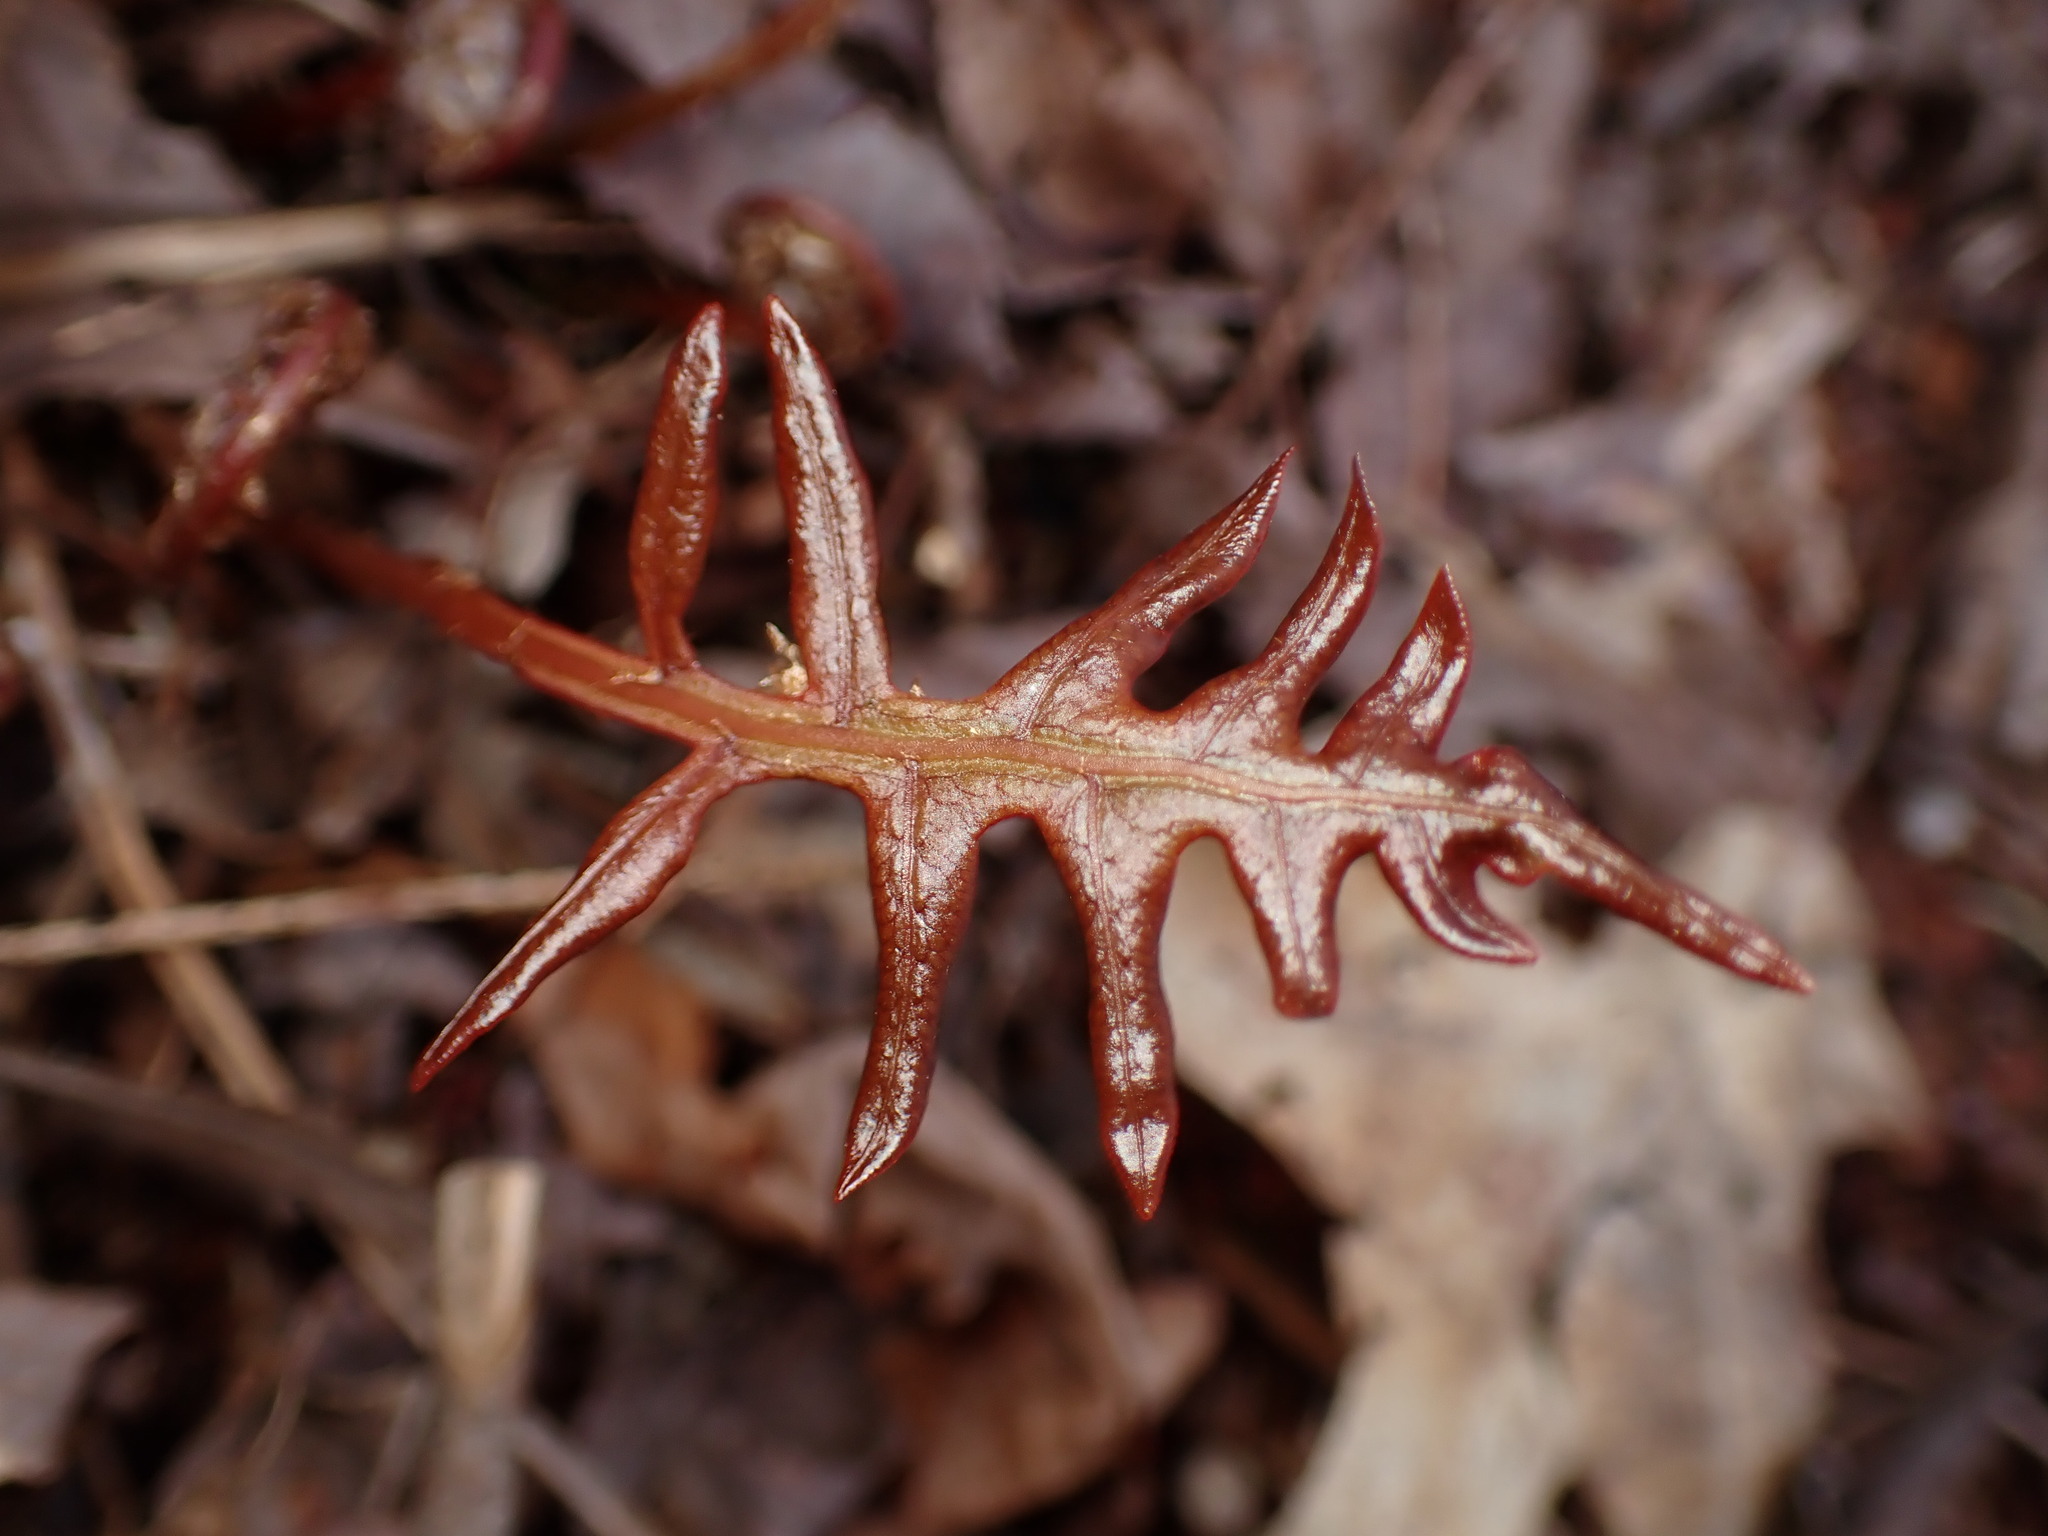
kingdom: Plantae
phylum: Tracheophyta
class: Polypodiopsida
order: Polypodiales
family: Blechnaceae
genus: Lorinseria
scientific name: Lorinseria areolata
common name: Dwarf chain fern
